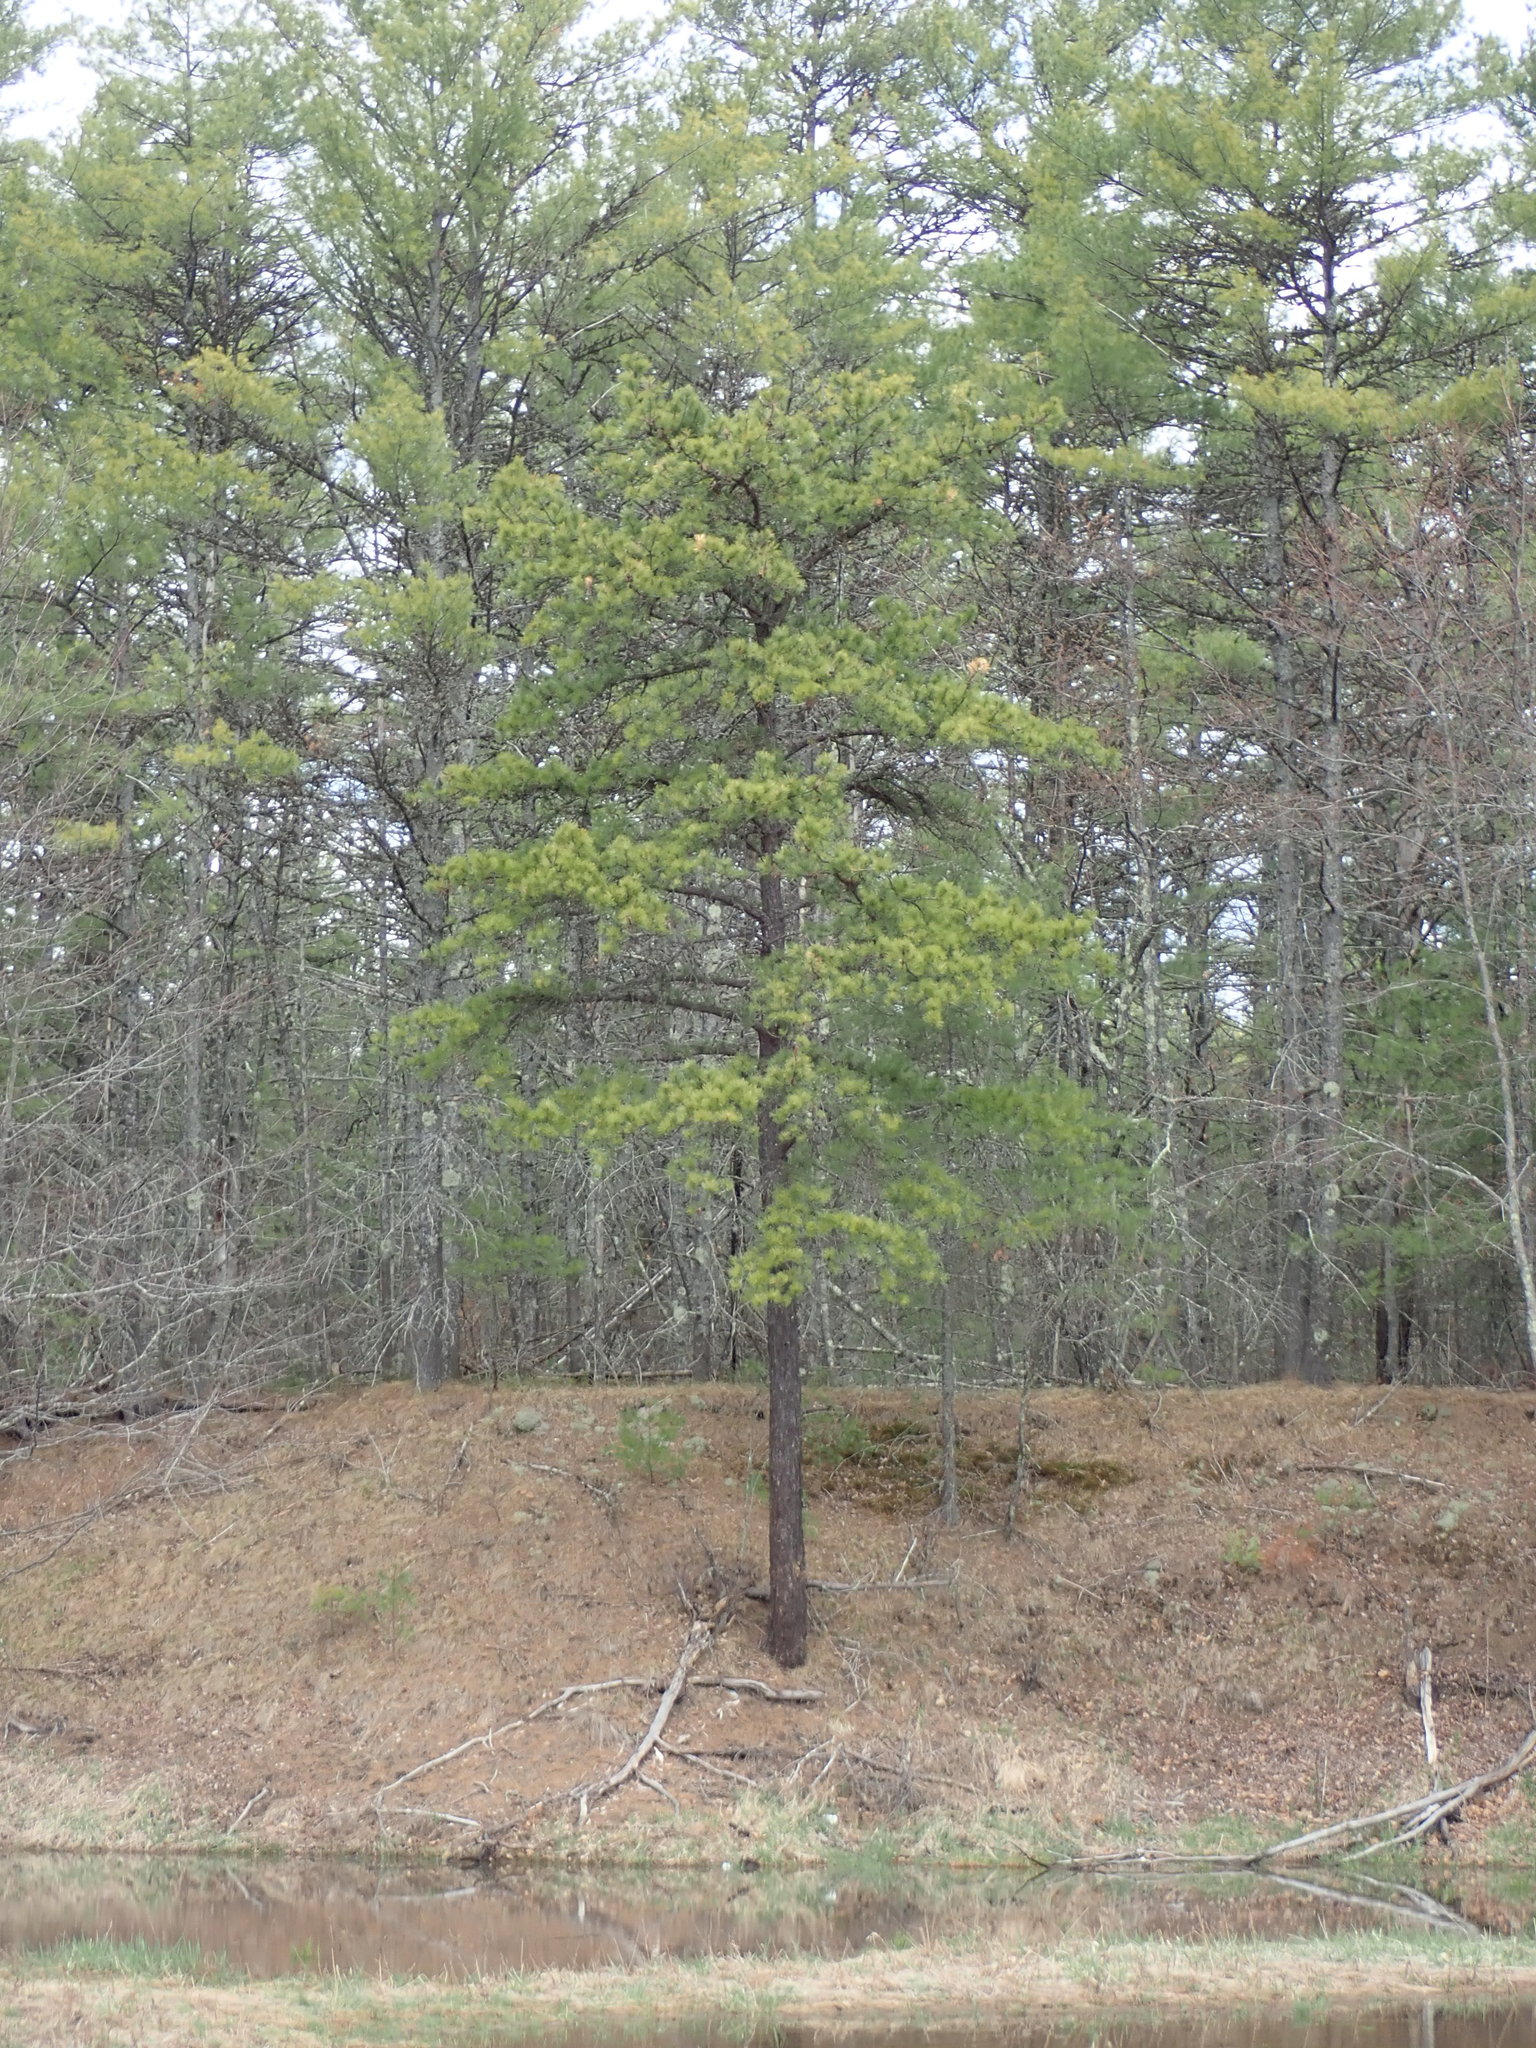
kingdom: Plantae
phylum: Tracheophyta
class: Pinopsida
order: Pinales
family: Pinaceae
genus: Pinus
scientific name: Pinus rigida
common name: Pitch pine
